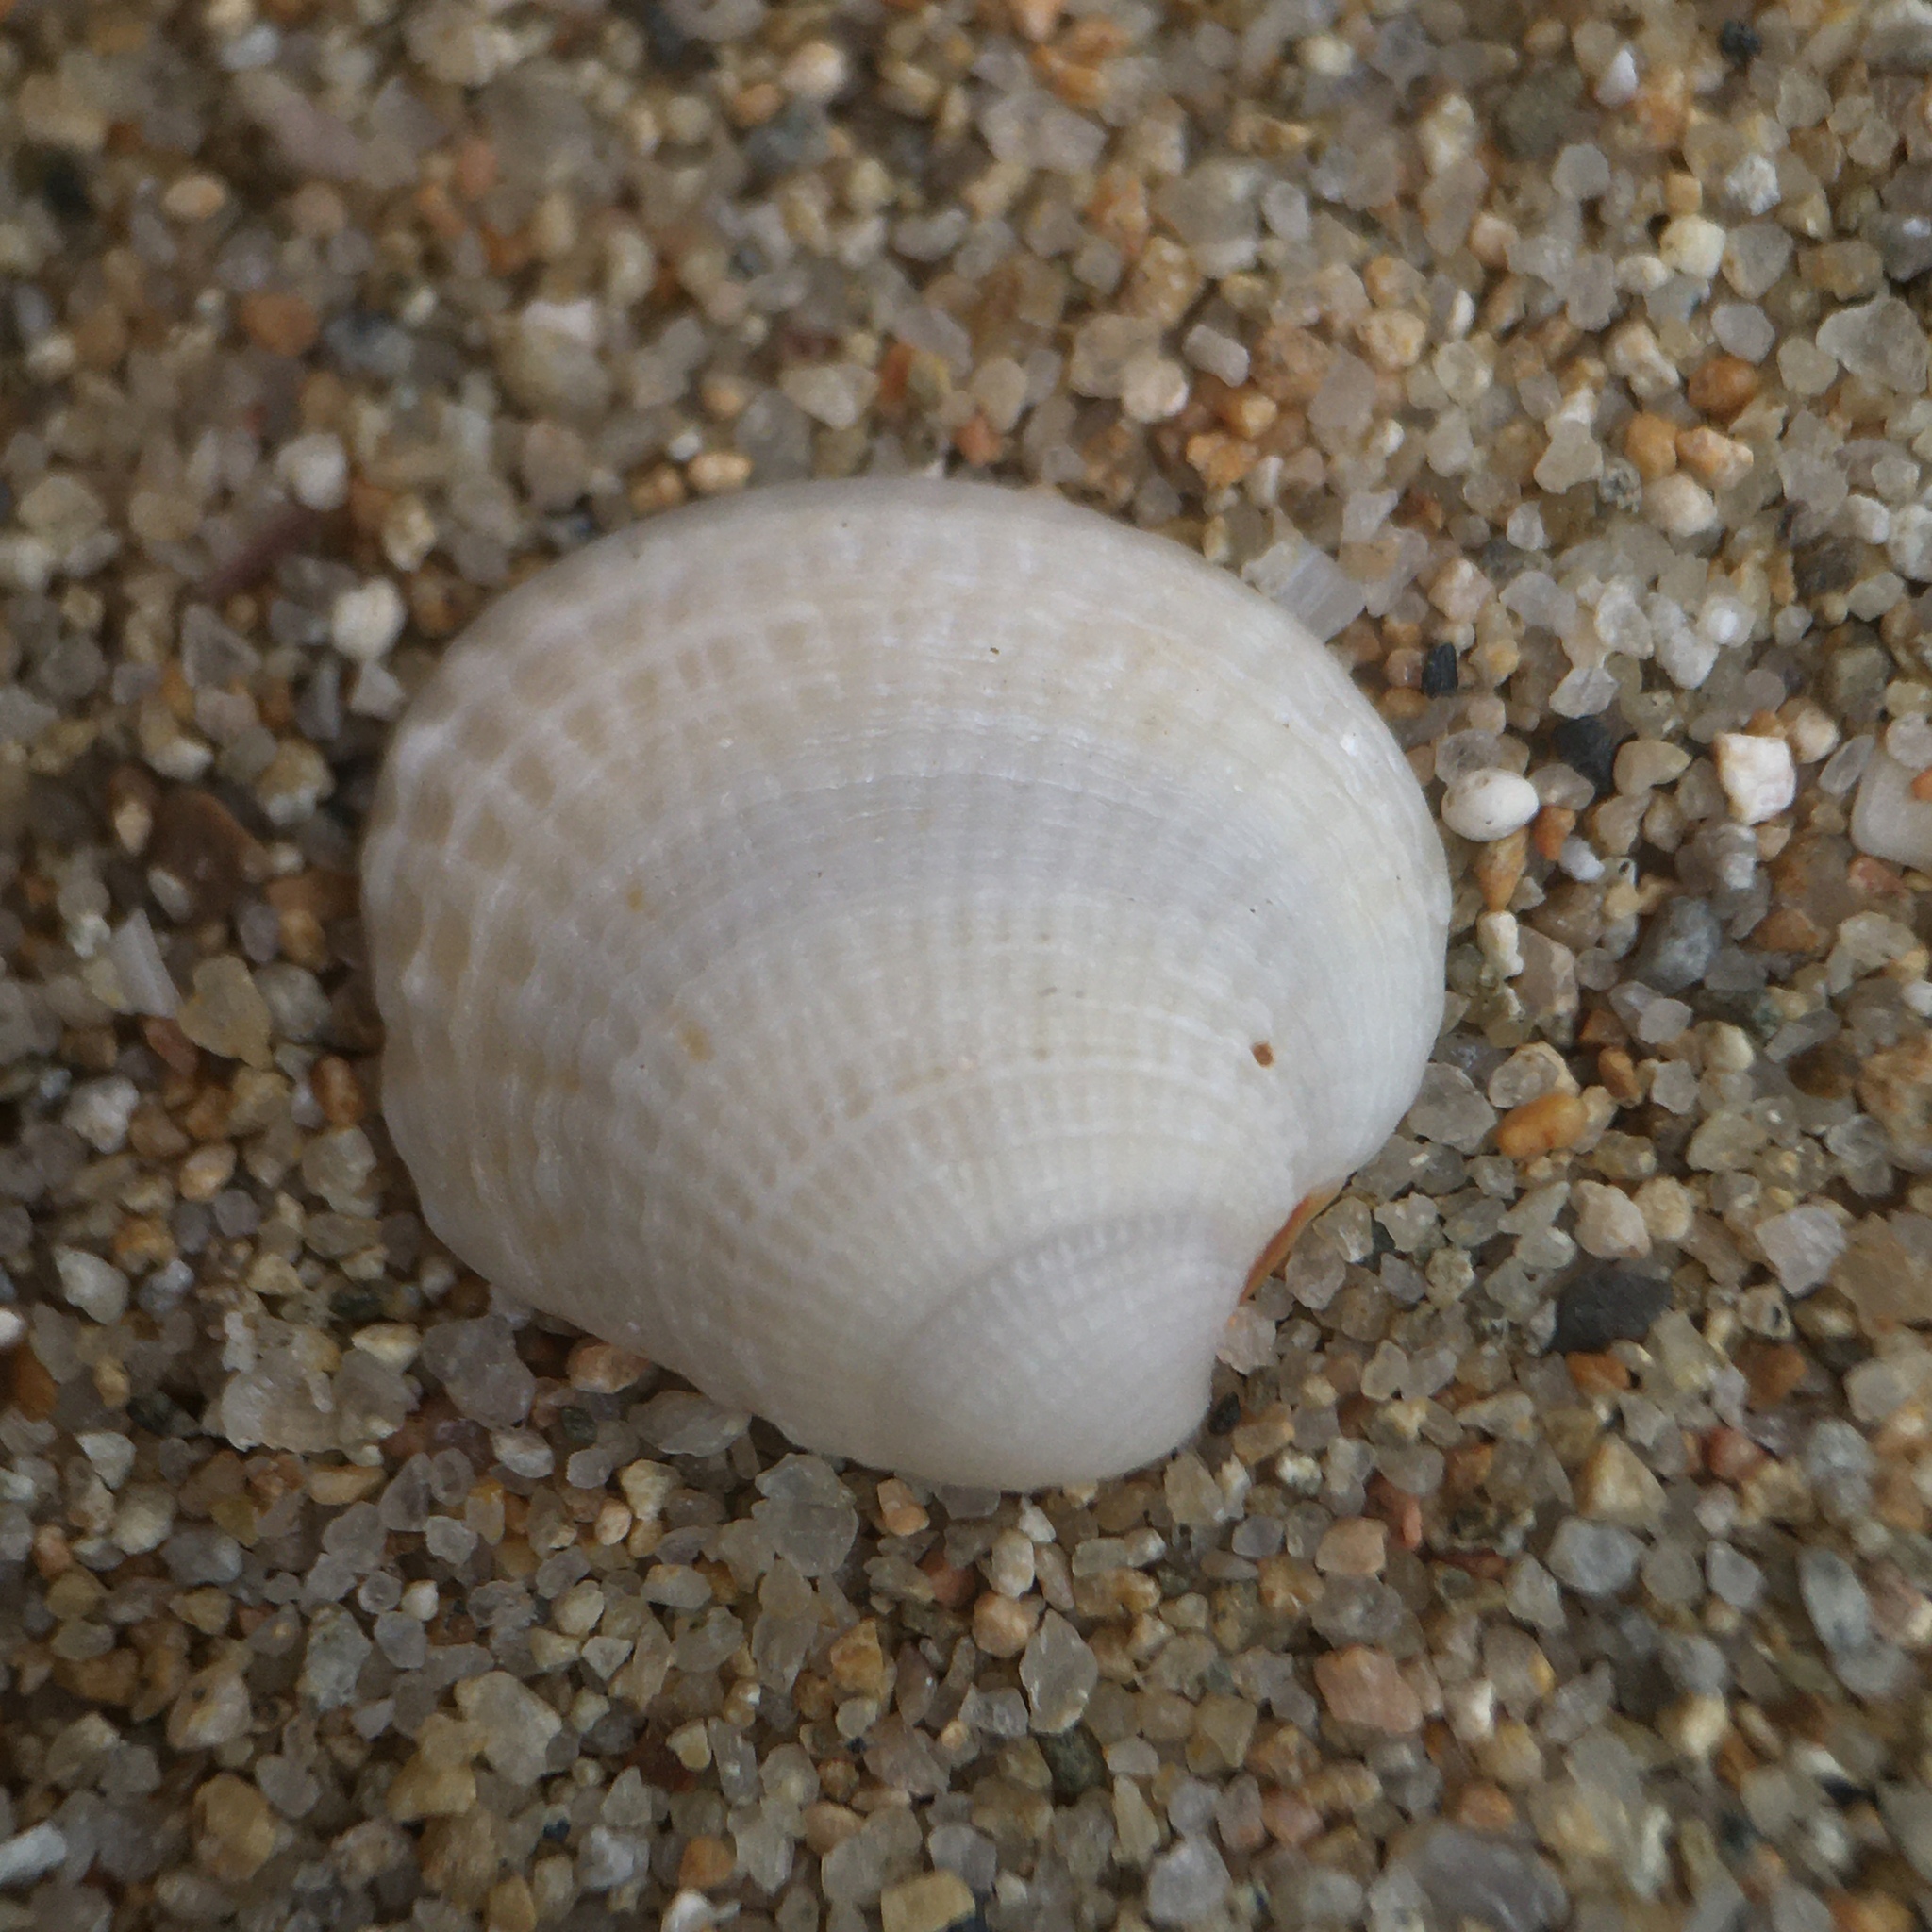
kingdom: Animalia
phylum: Mollusca
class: Bivalvia
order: Venerida
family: Veneridae
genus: Venus
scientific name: Venus verrucosa
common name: Warty venus
